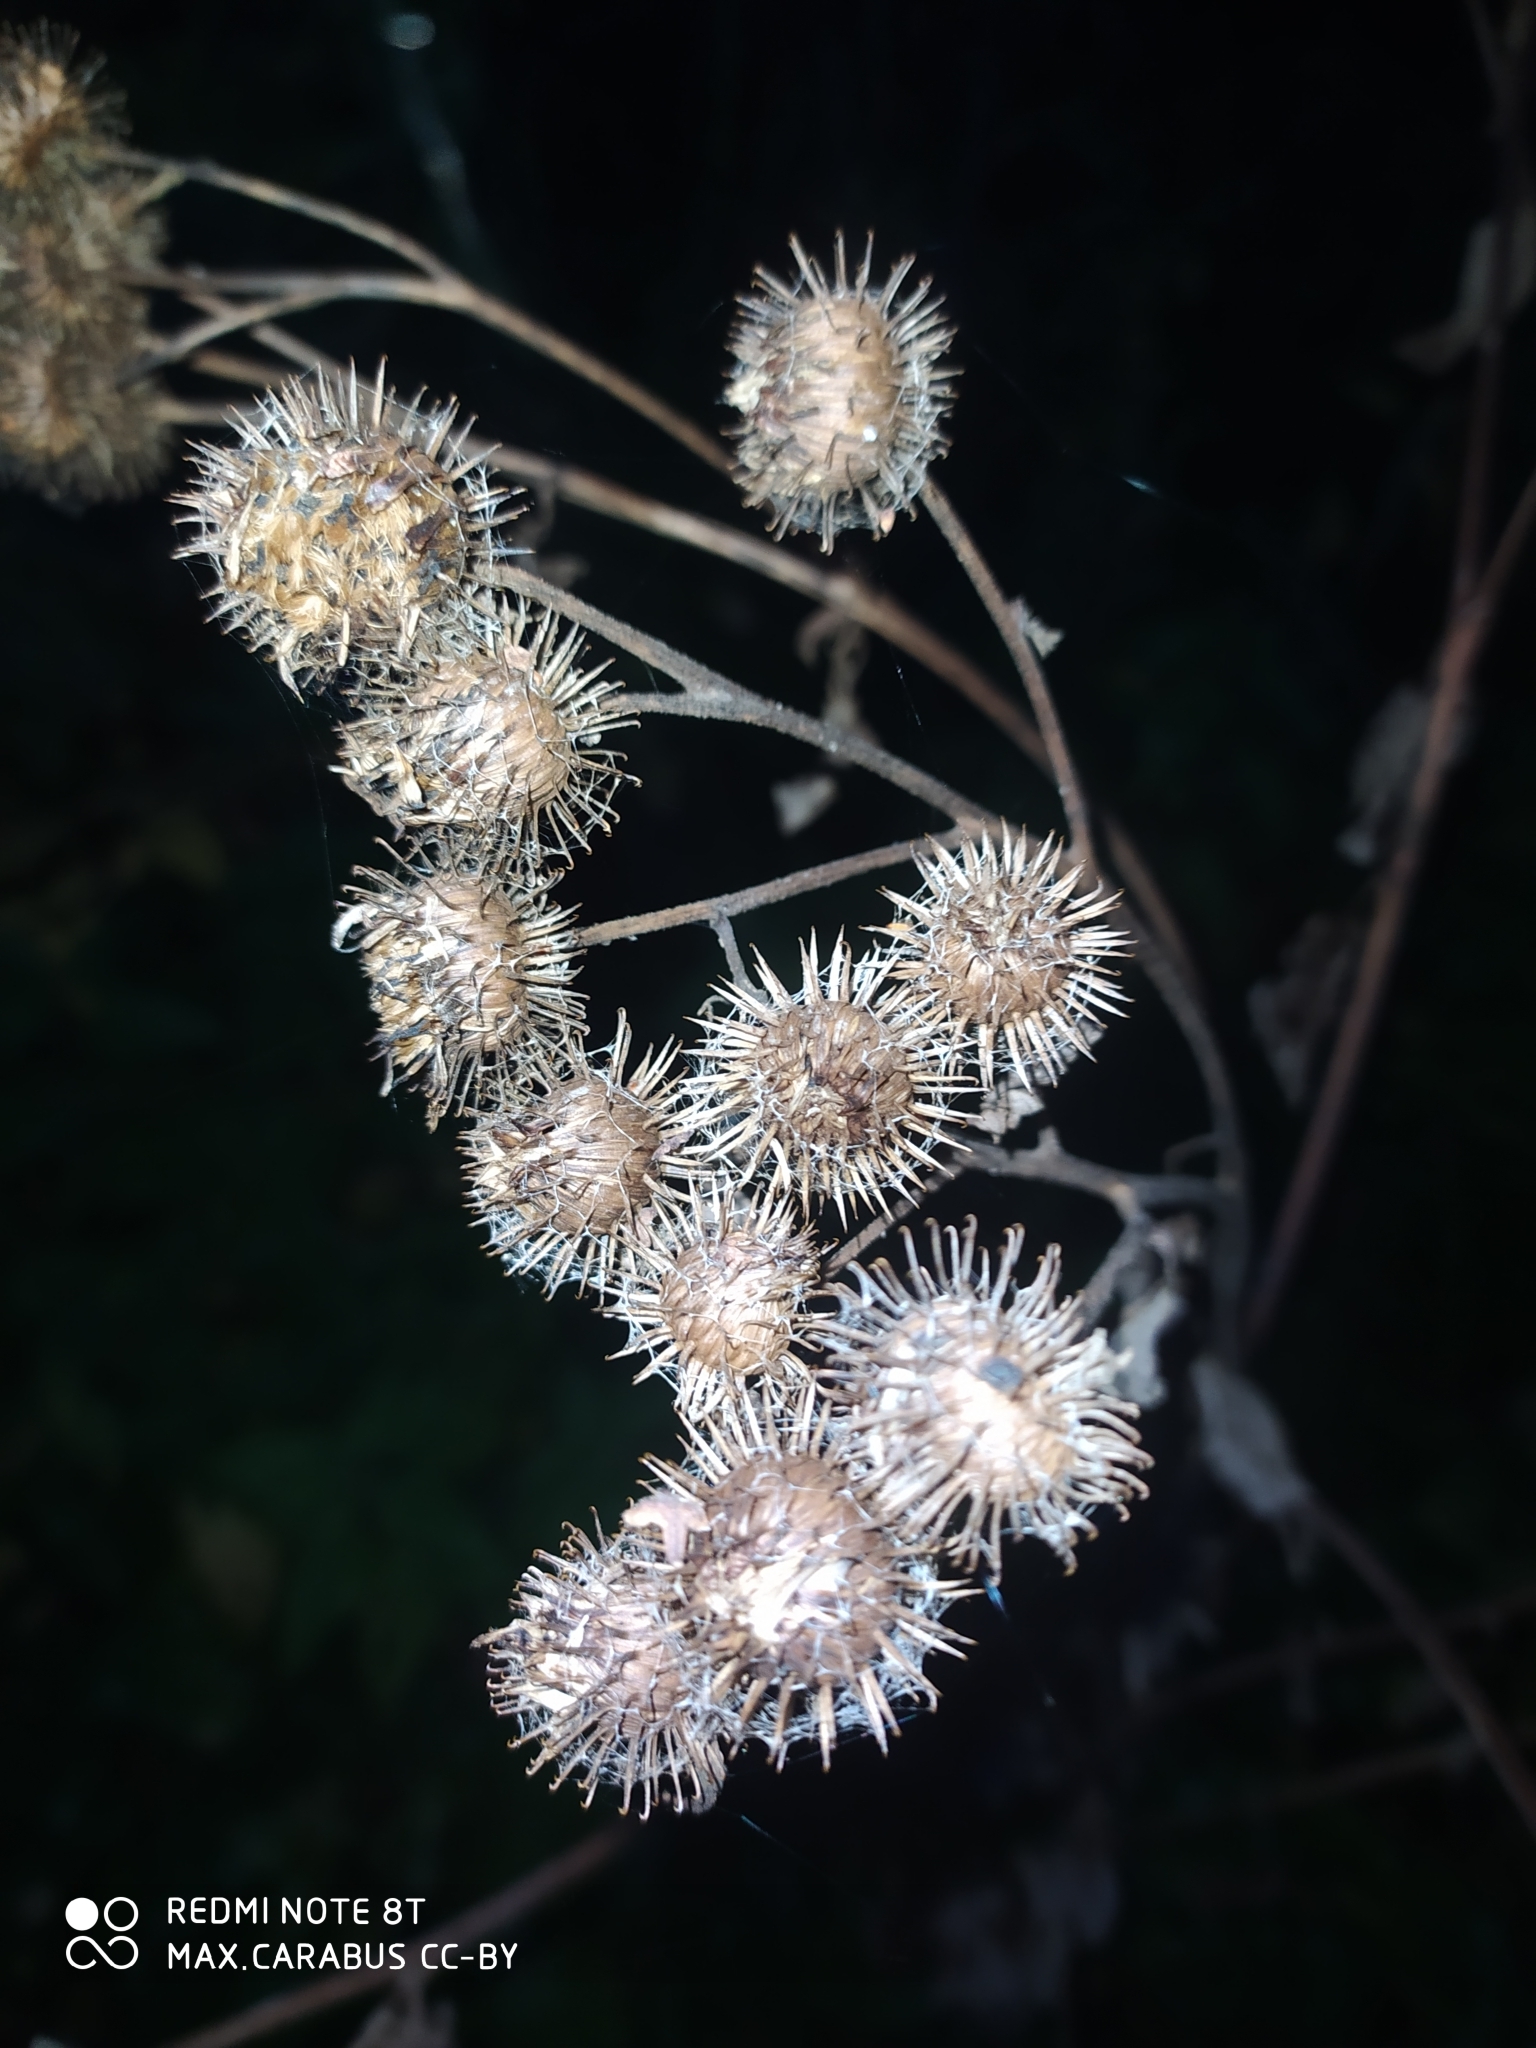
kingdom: Plantae
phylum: Tracheophyta
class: Magnoliopsida
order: Asterales
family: Asteraceae
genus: Arctium
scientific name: Arctium tomentosum
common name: Woolly burdock
